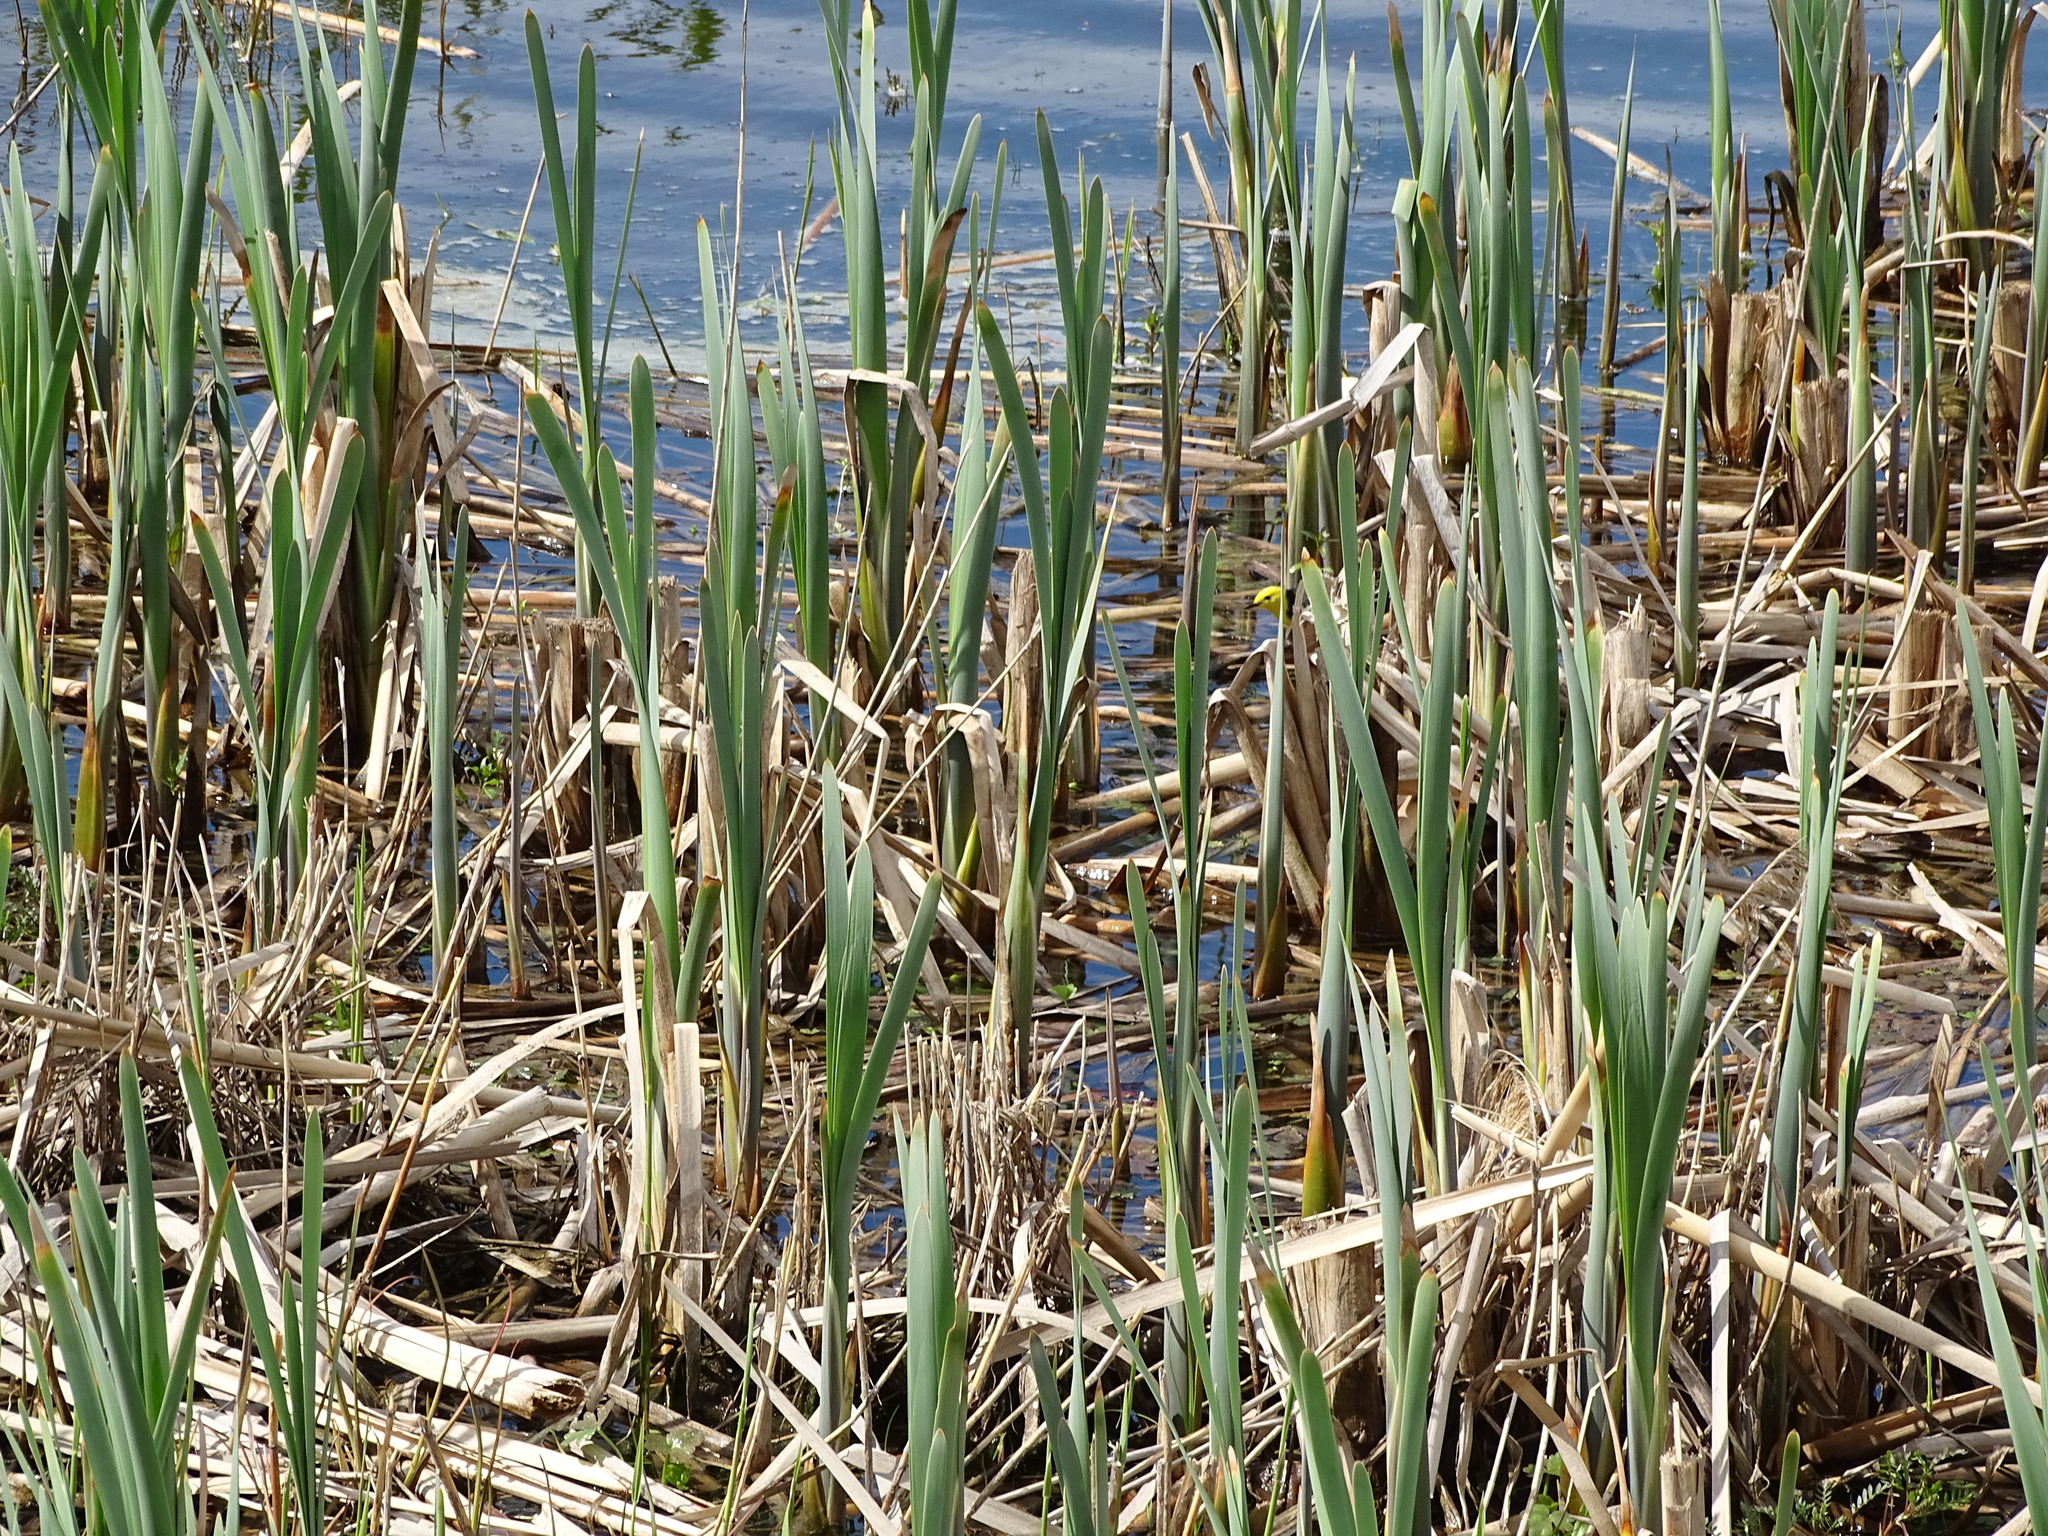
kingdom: Animalia
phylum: Chordata
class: Aves
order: Passeriformes
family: Motacillidae
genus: Motacilla
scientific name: Motacilla citreola
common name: Citrine wagtail
